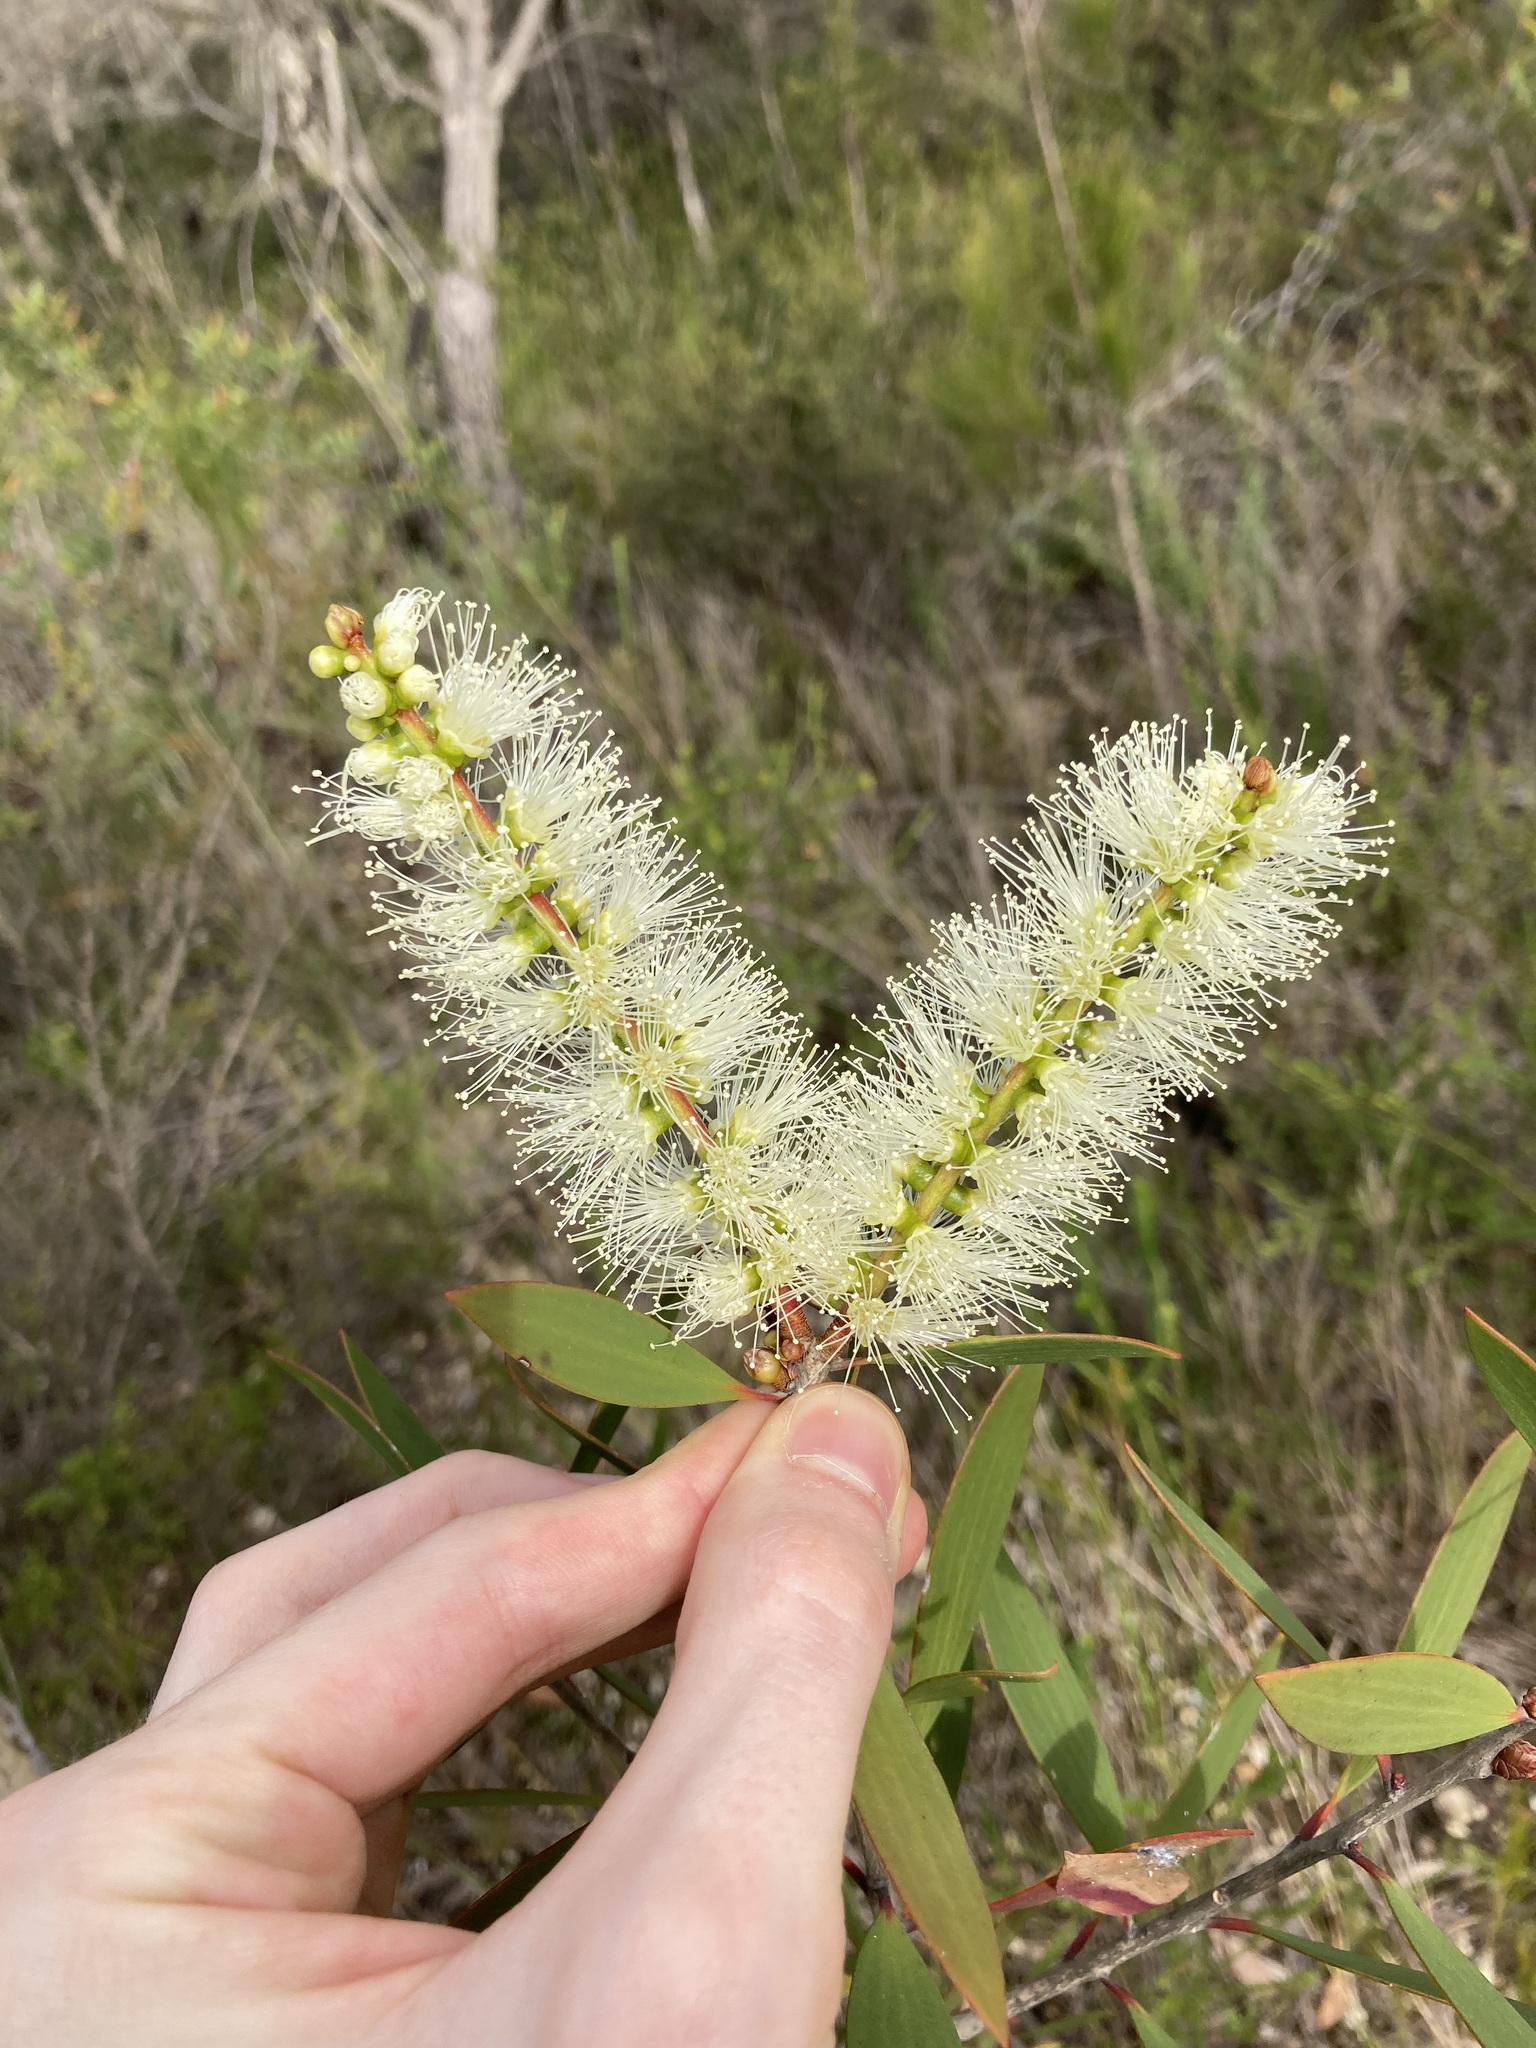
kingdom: Plantae
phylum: Tracheophyta
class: Magnoliopsida
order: Myrtales
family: Myrtaceae
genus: Melaleuca
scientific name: Melaleuca quinquenervia
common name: Punktree
